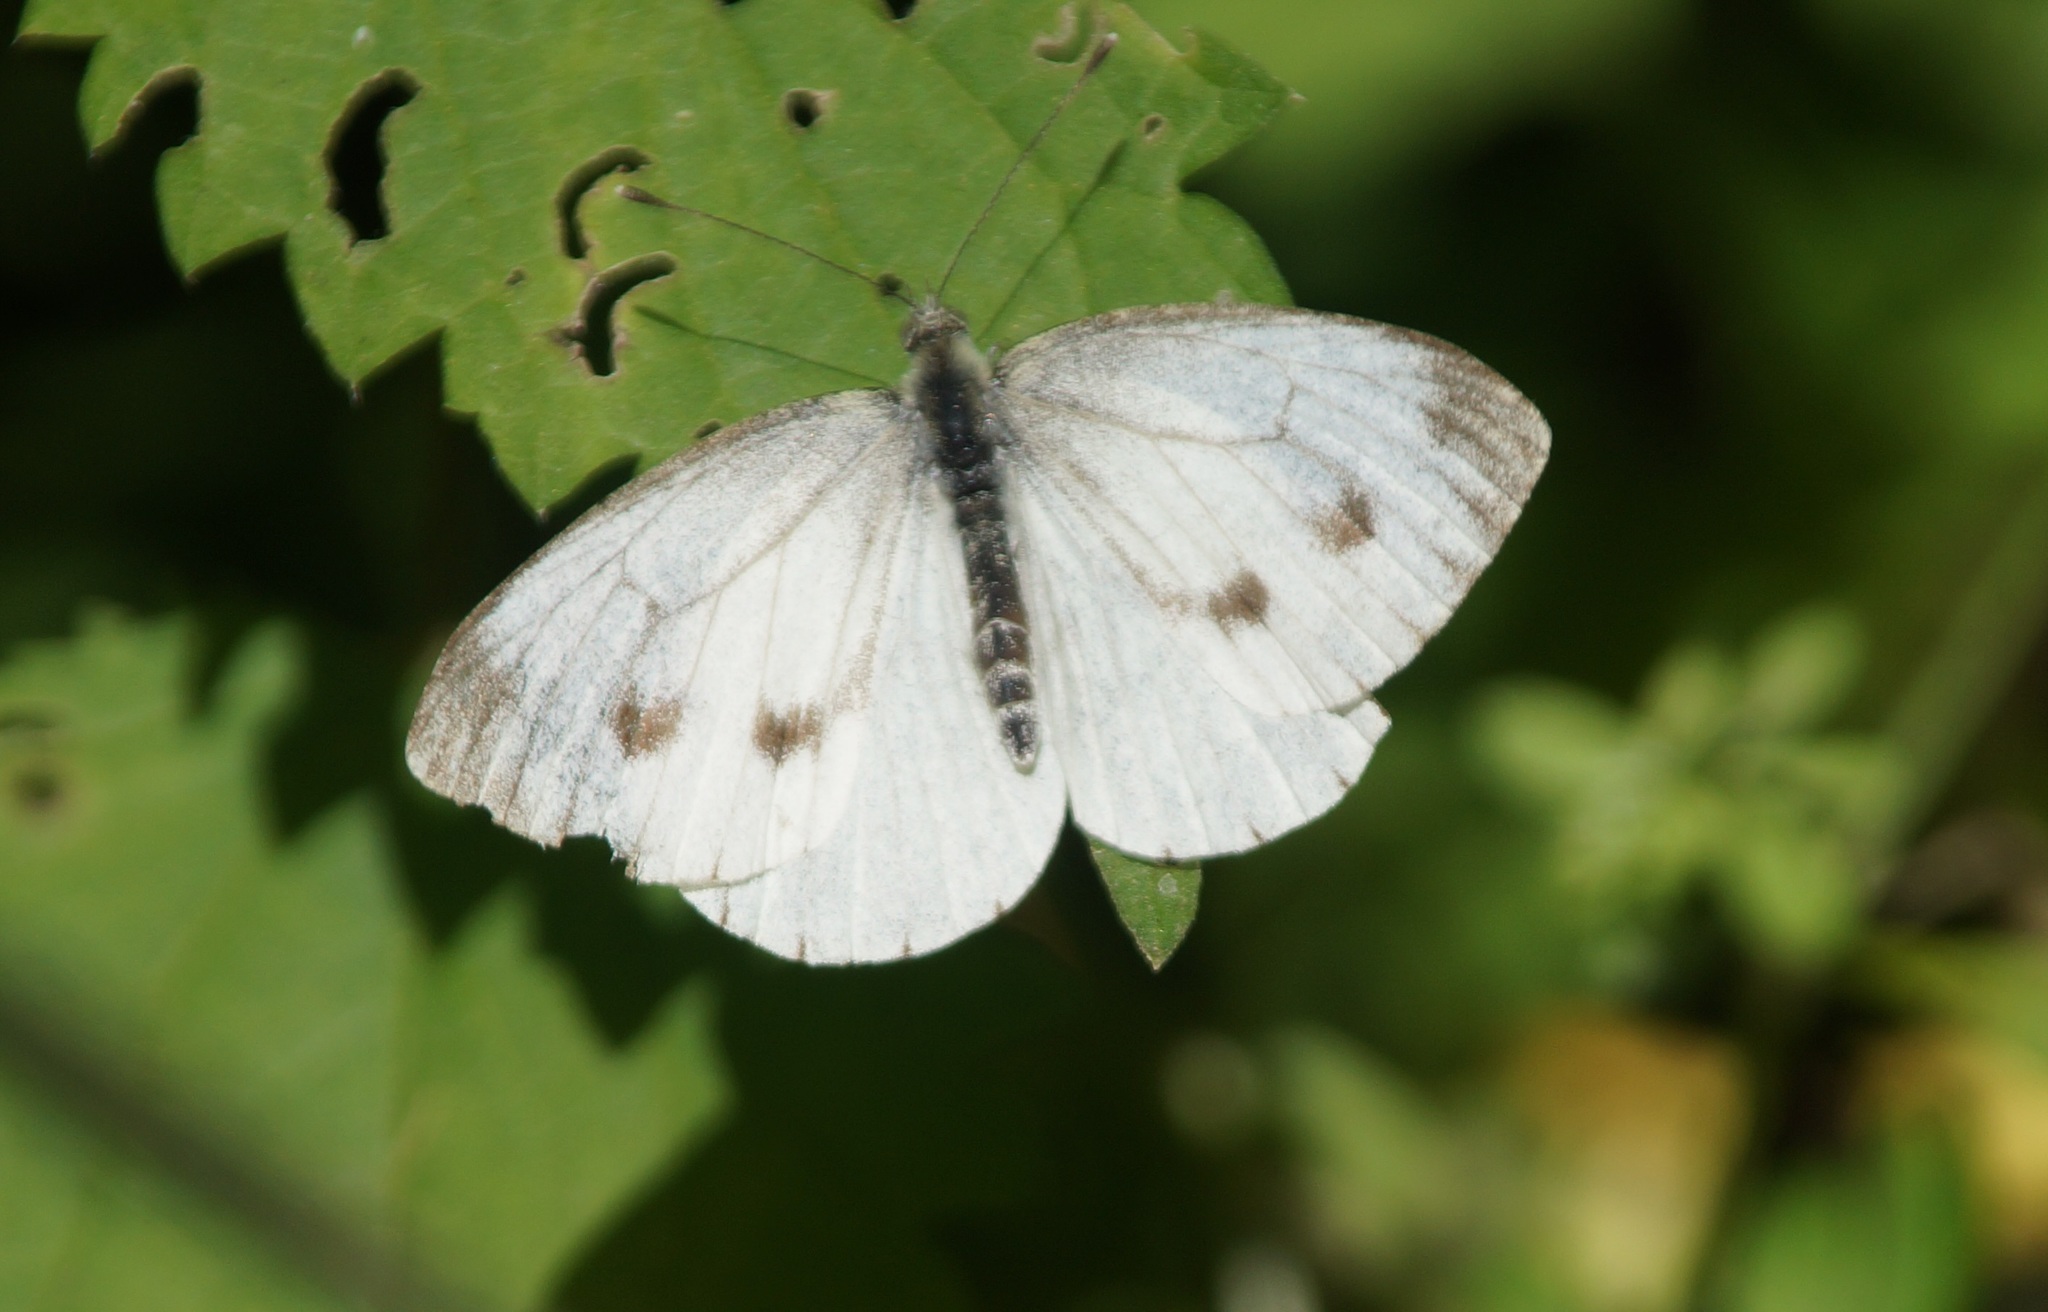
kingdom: Animalia
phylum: Arthropoda
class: Insecta
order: Lepidoptera
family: Pieridae
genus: Pieris
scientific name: Pieris napi
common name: Green-veined white
